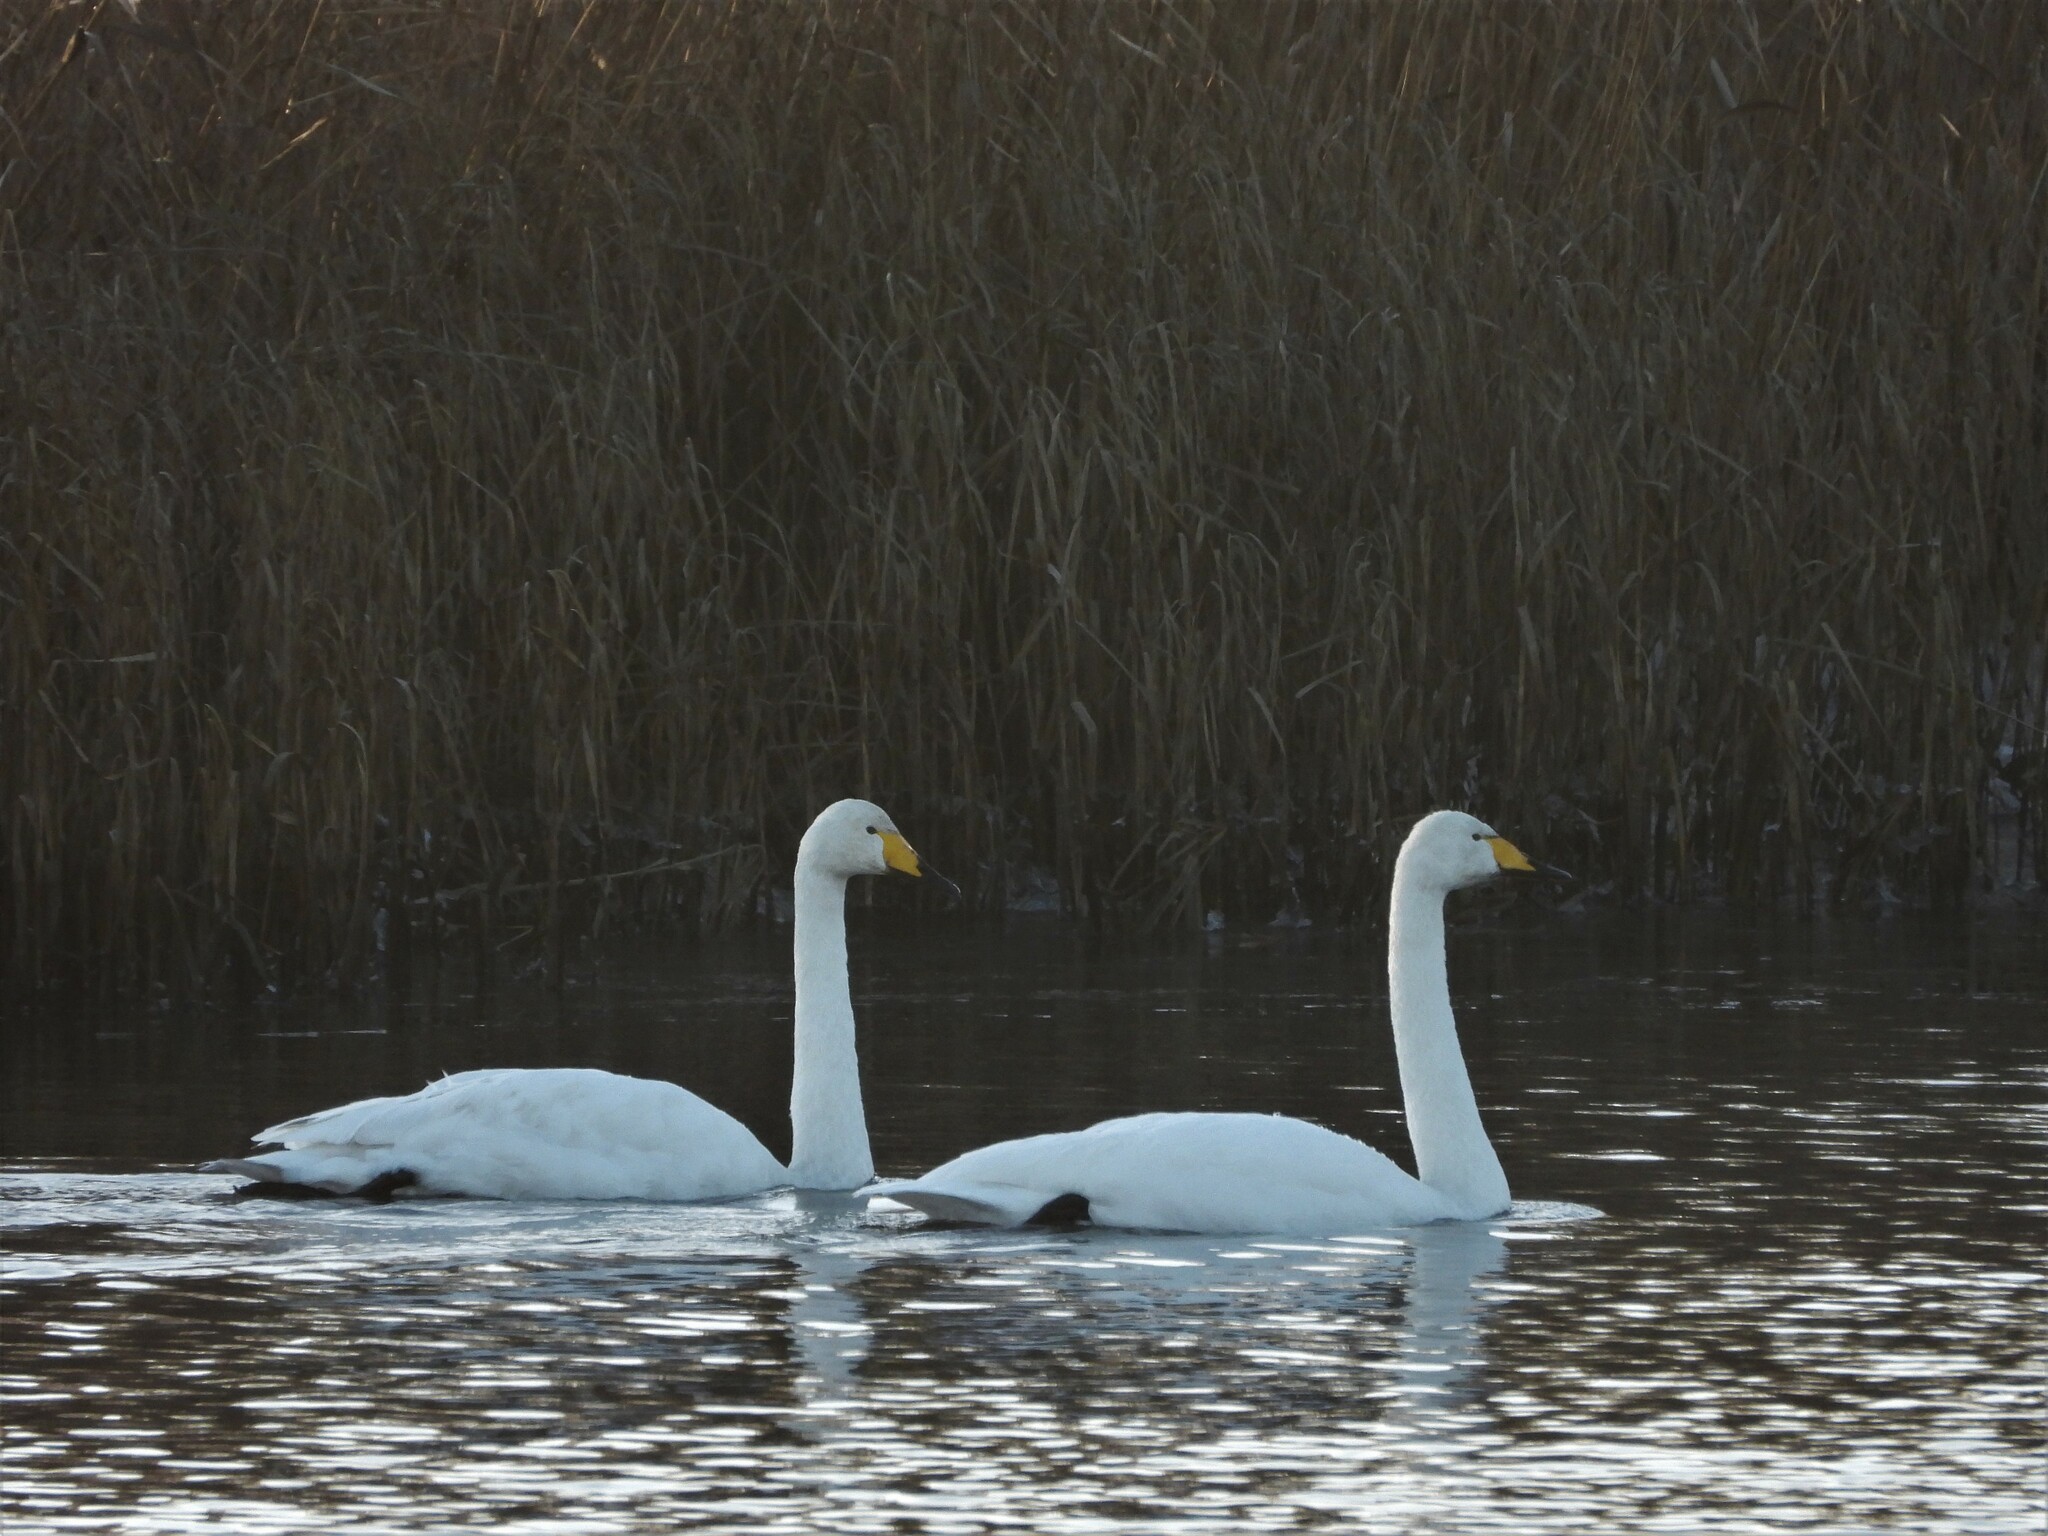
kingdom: Animalia
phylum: Chordata
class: Aves
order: Anseriformes
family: Anatidae
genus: Cygnus
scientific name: Cygnus cygnus
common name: Whooper swan
